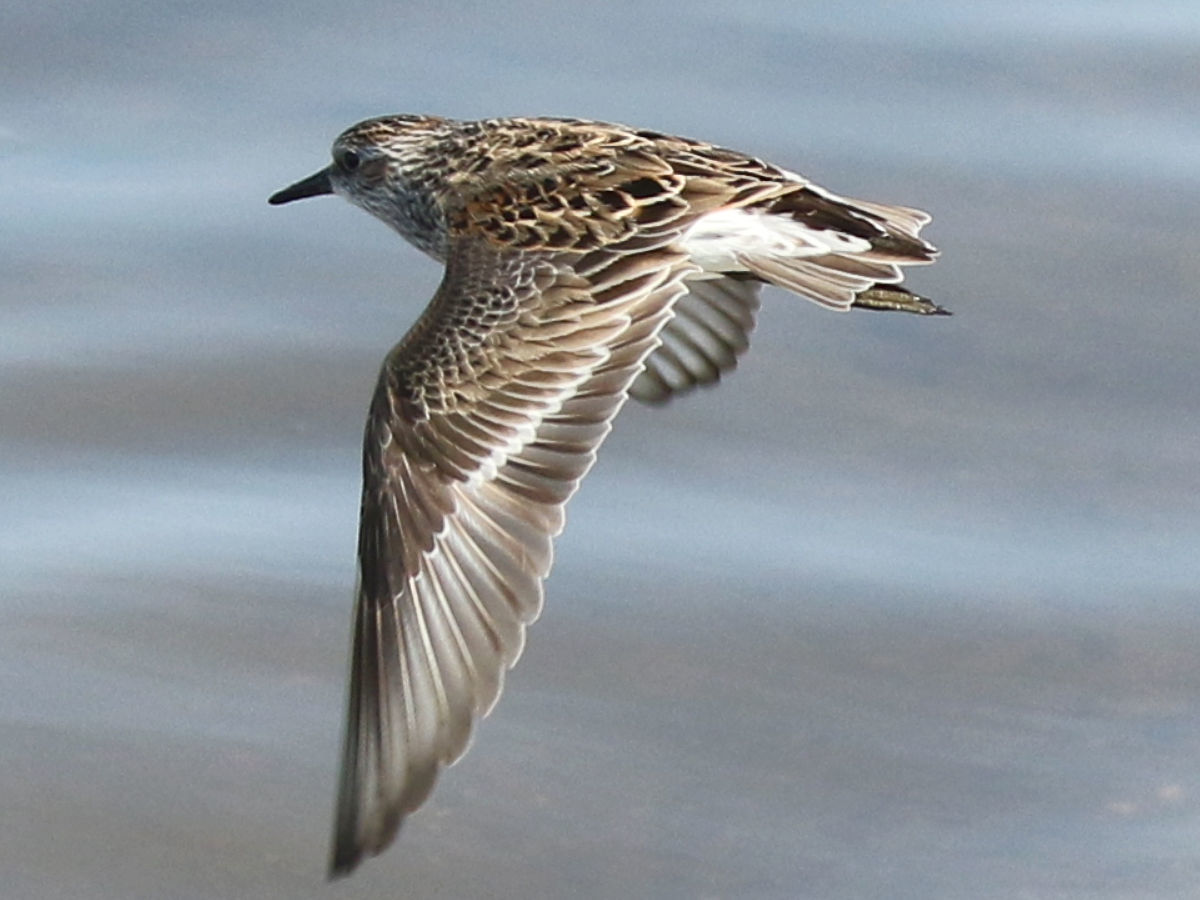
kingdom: Animalia
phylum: Chordata
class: Aves
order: Charadriiformes
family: Scolopacidae
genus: Calidris
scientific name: Calidris minutilla
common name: Least sandpiper
